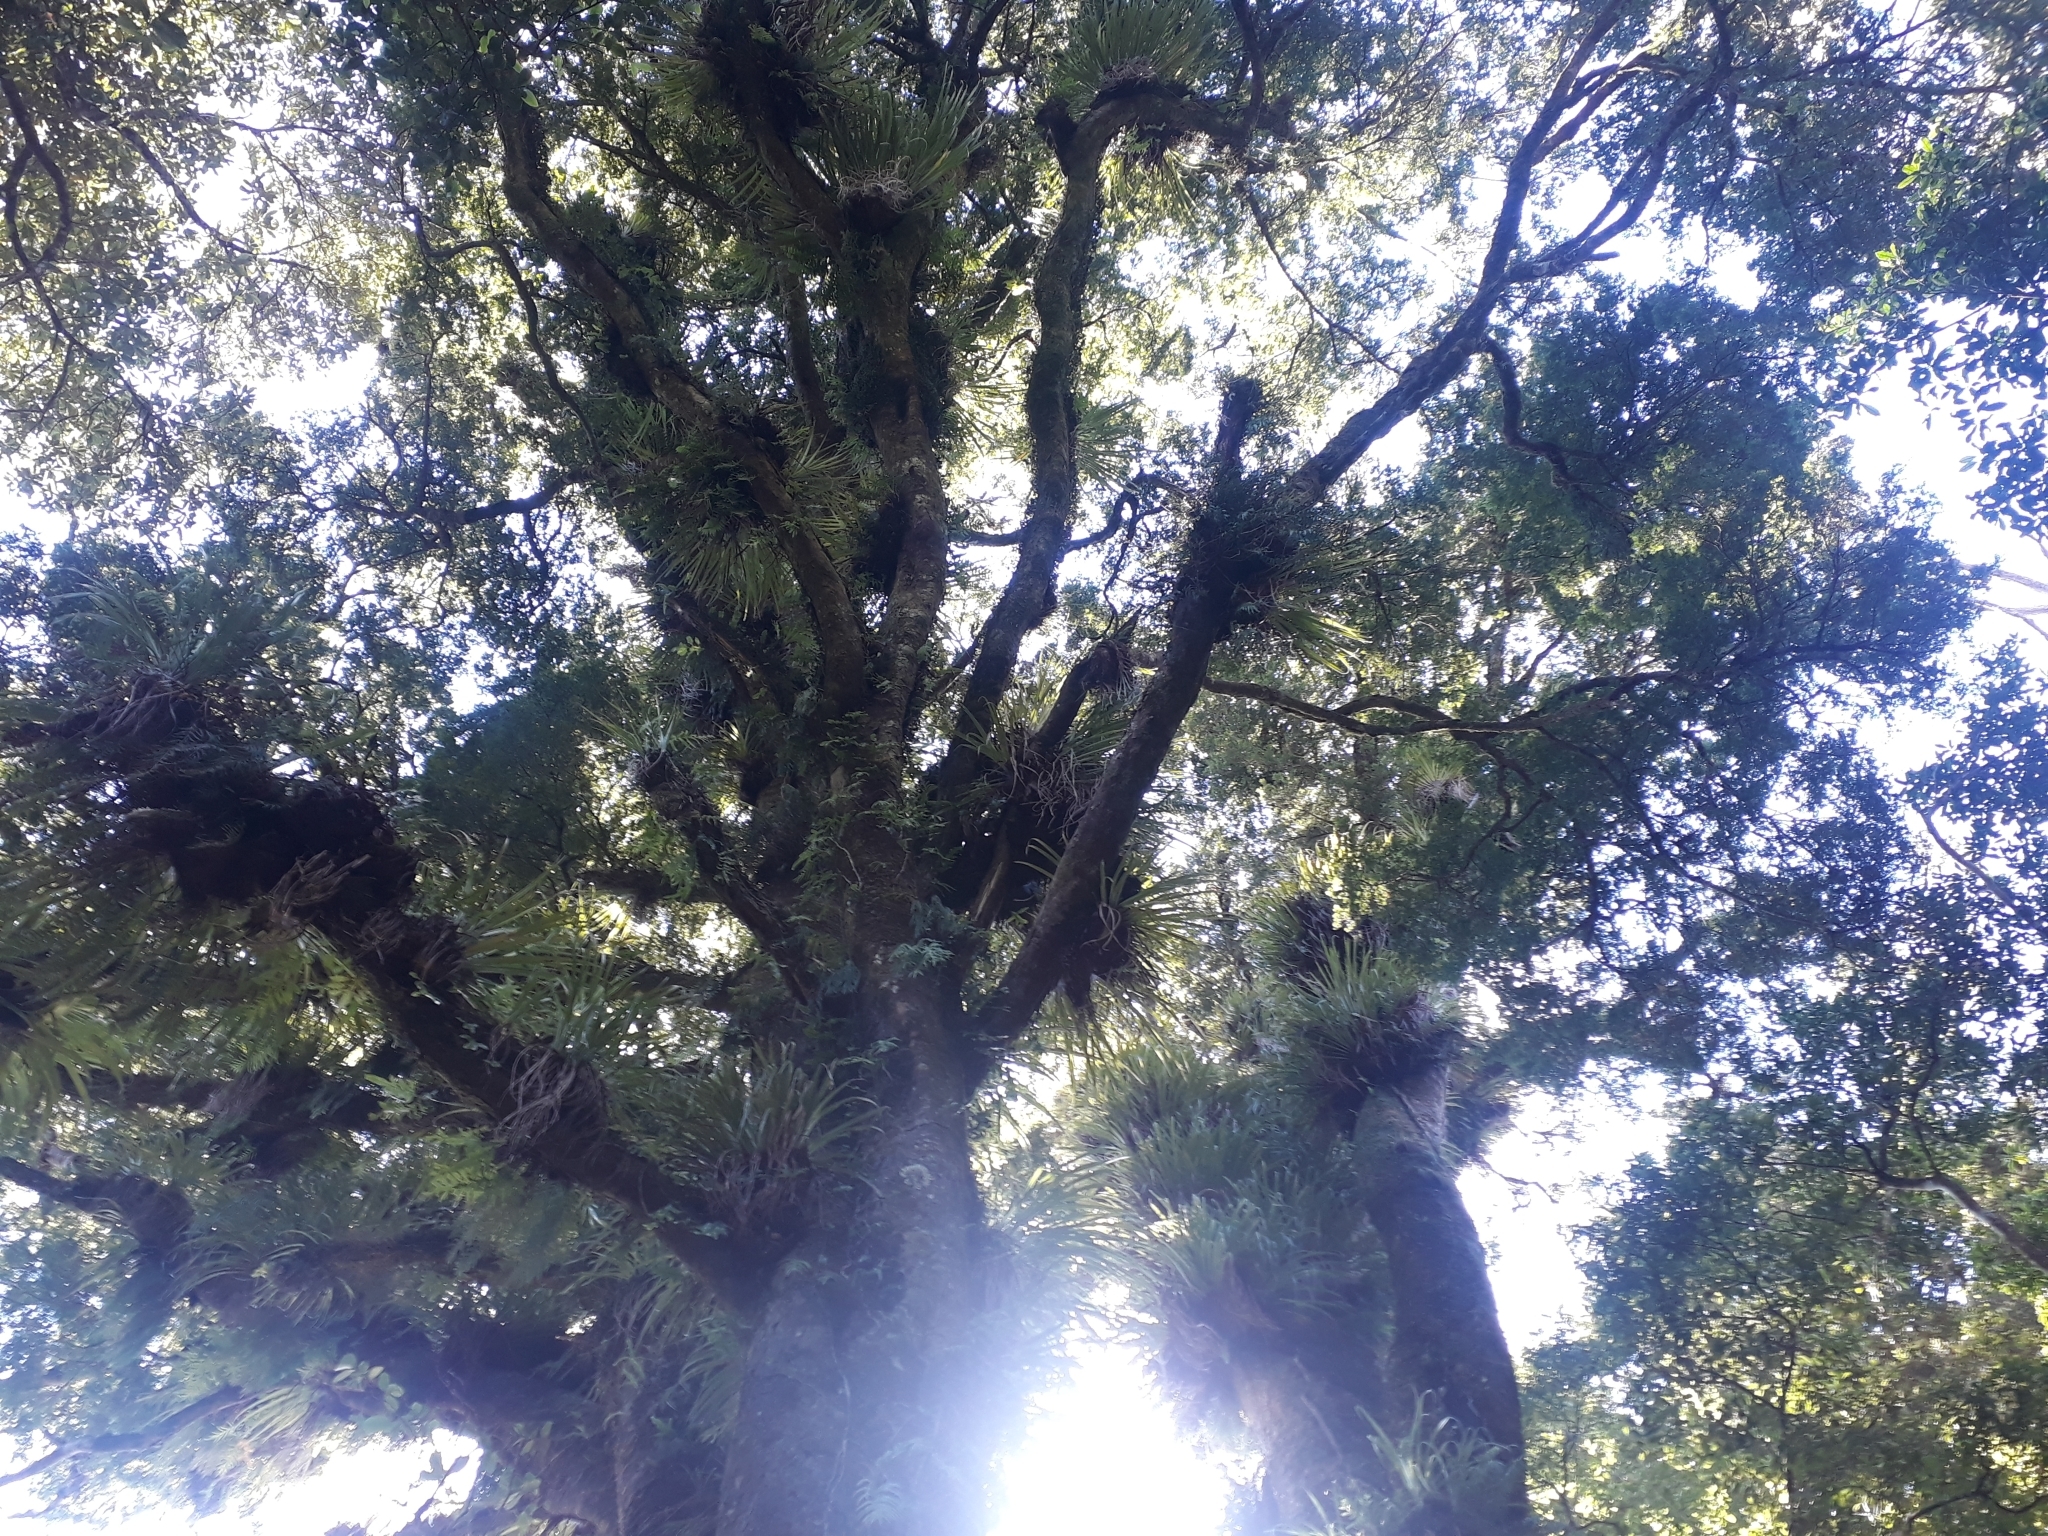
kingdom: Plantae
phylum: Tracheophyta
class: Pinopsida
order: Pinales
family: Podocarpaceae
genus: Prumnopitys
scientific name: Prumnopitys ferruginea
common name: Brown pine
